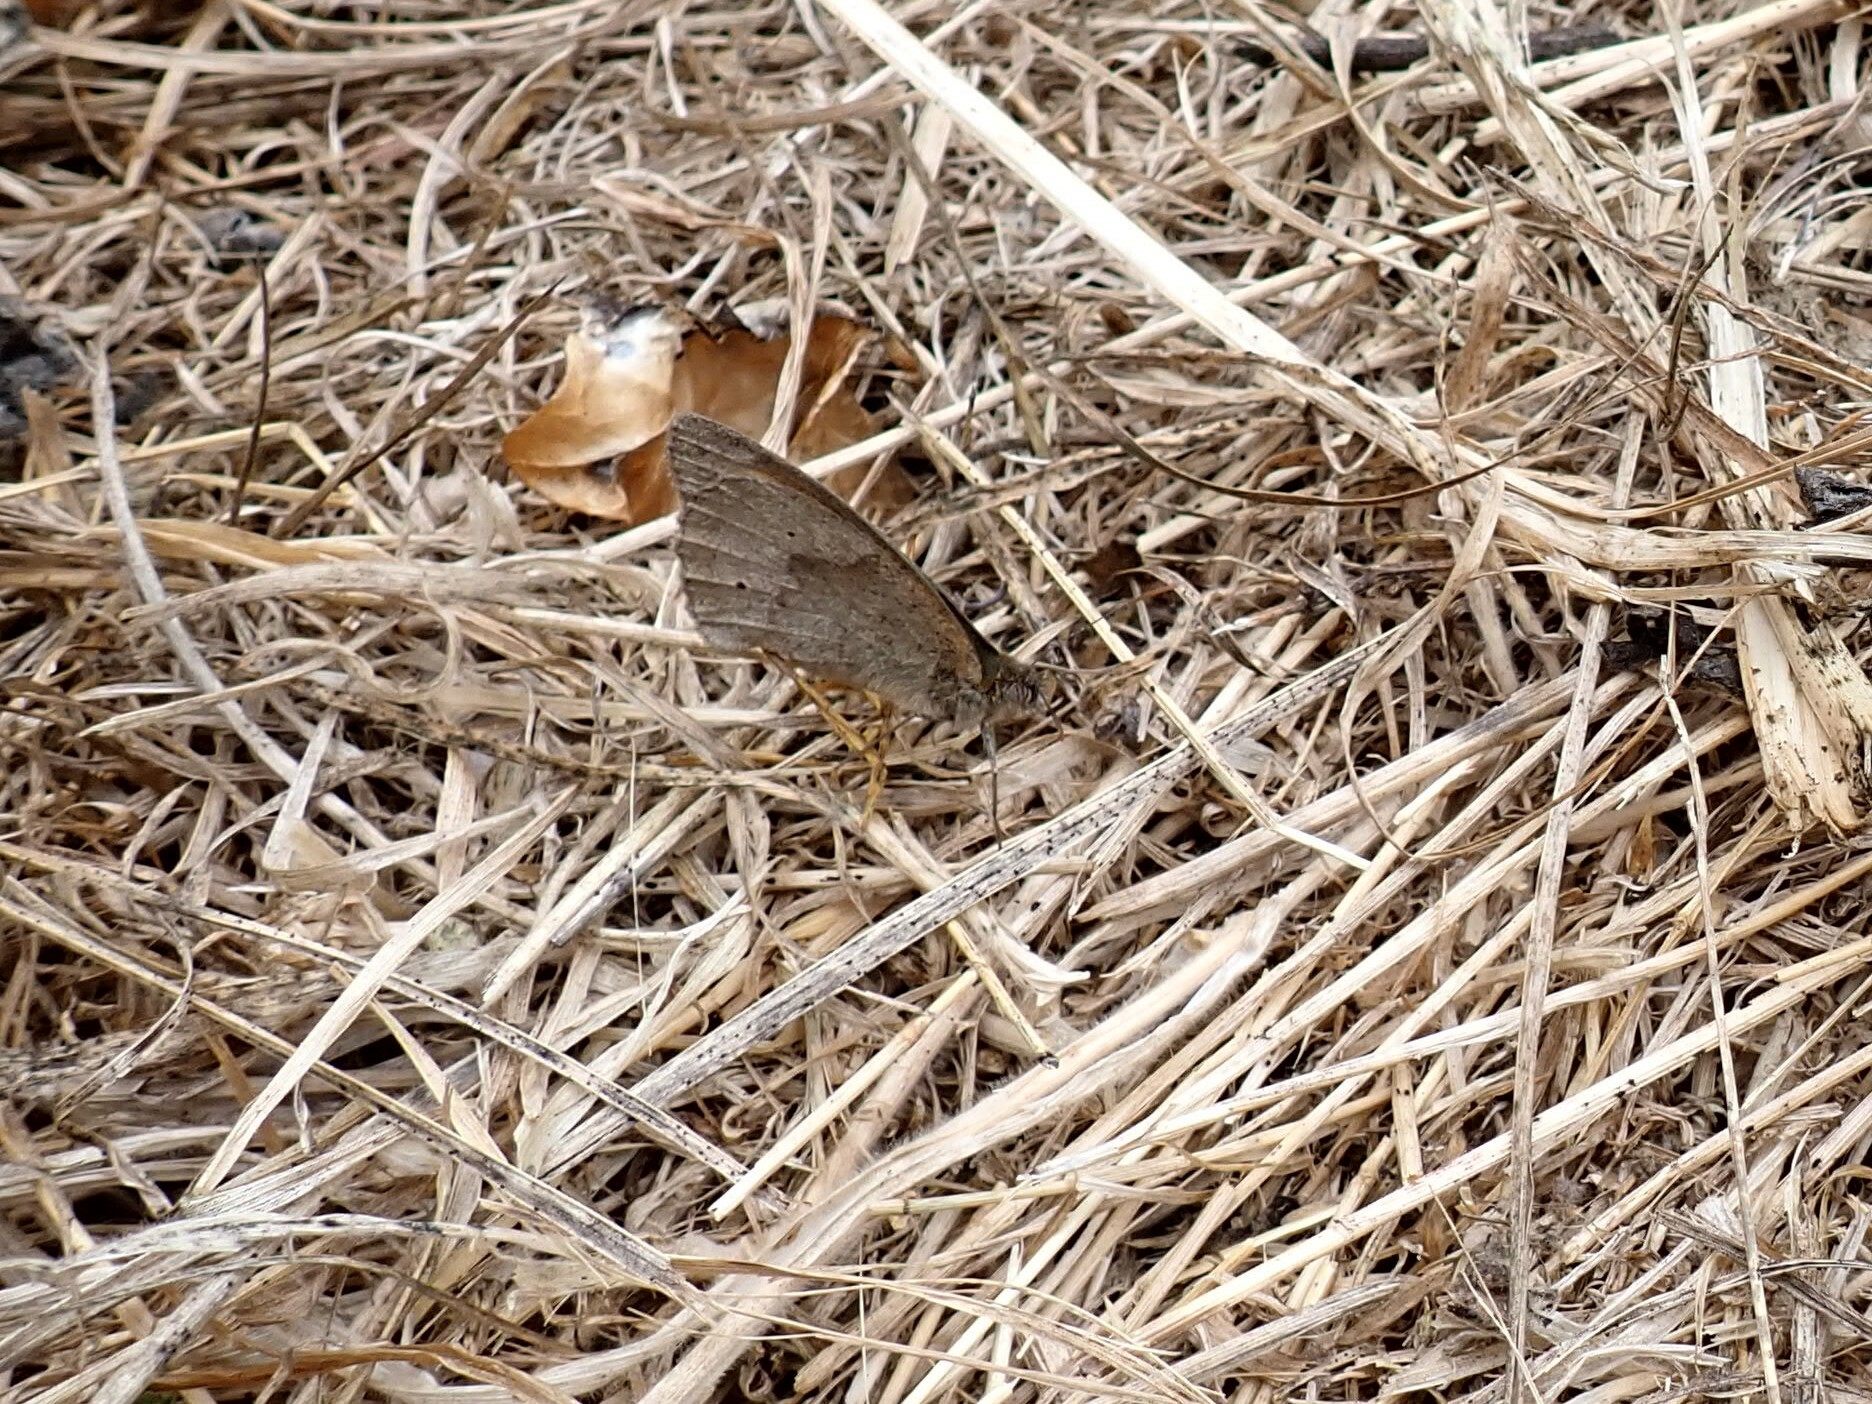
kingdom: Animalia
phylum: Arthropoda
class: Insecta
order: Lepidoptera
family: Nymphalidae
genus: Maniola
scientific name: Maniola jurtina
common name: Meadow brown
